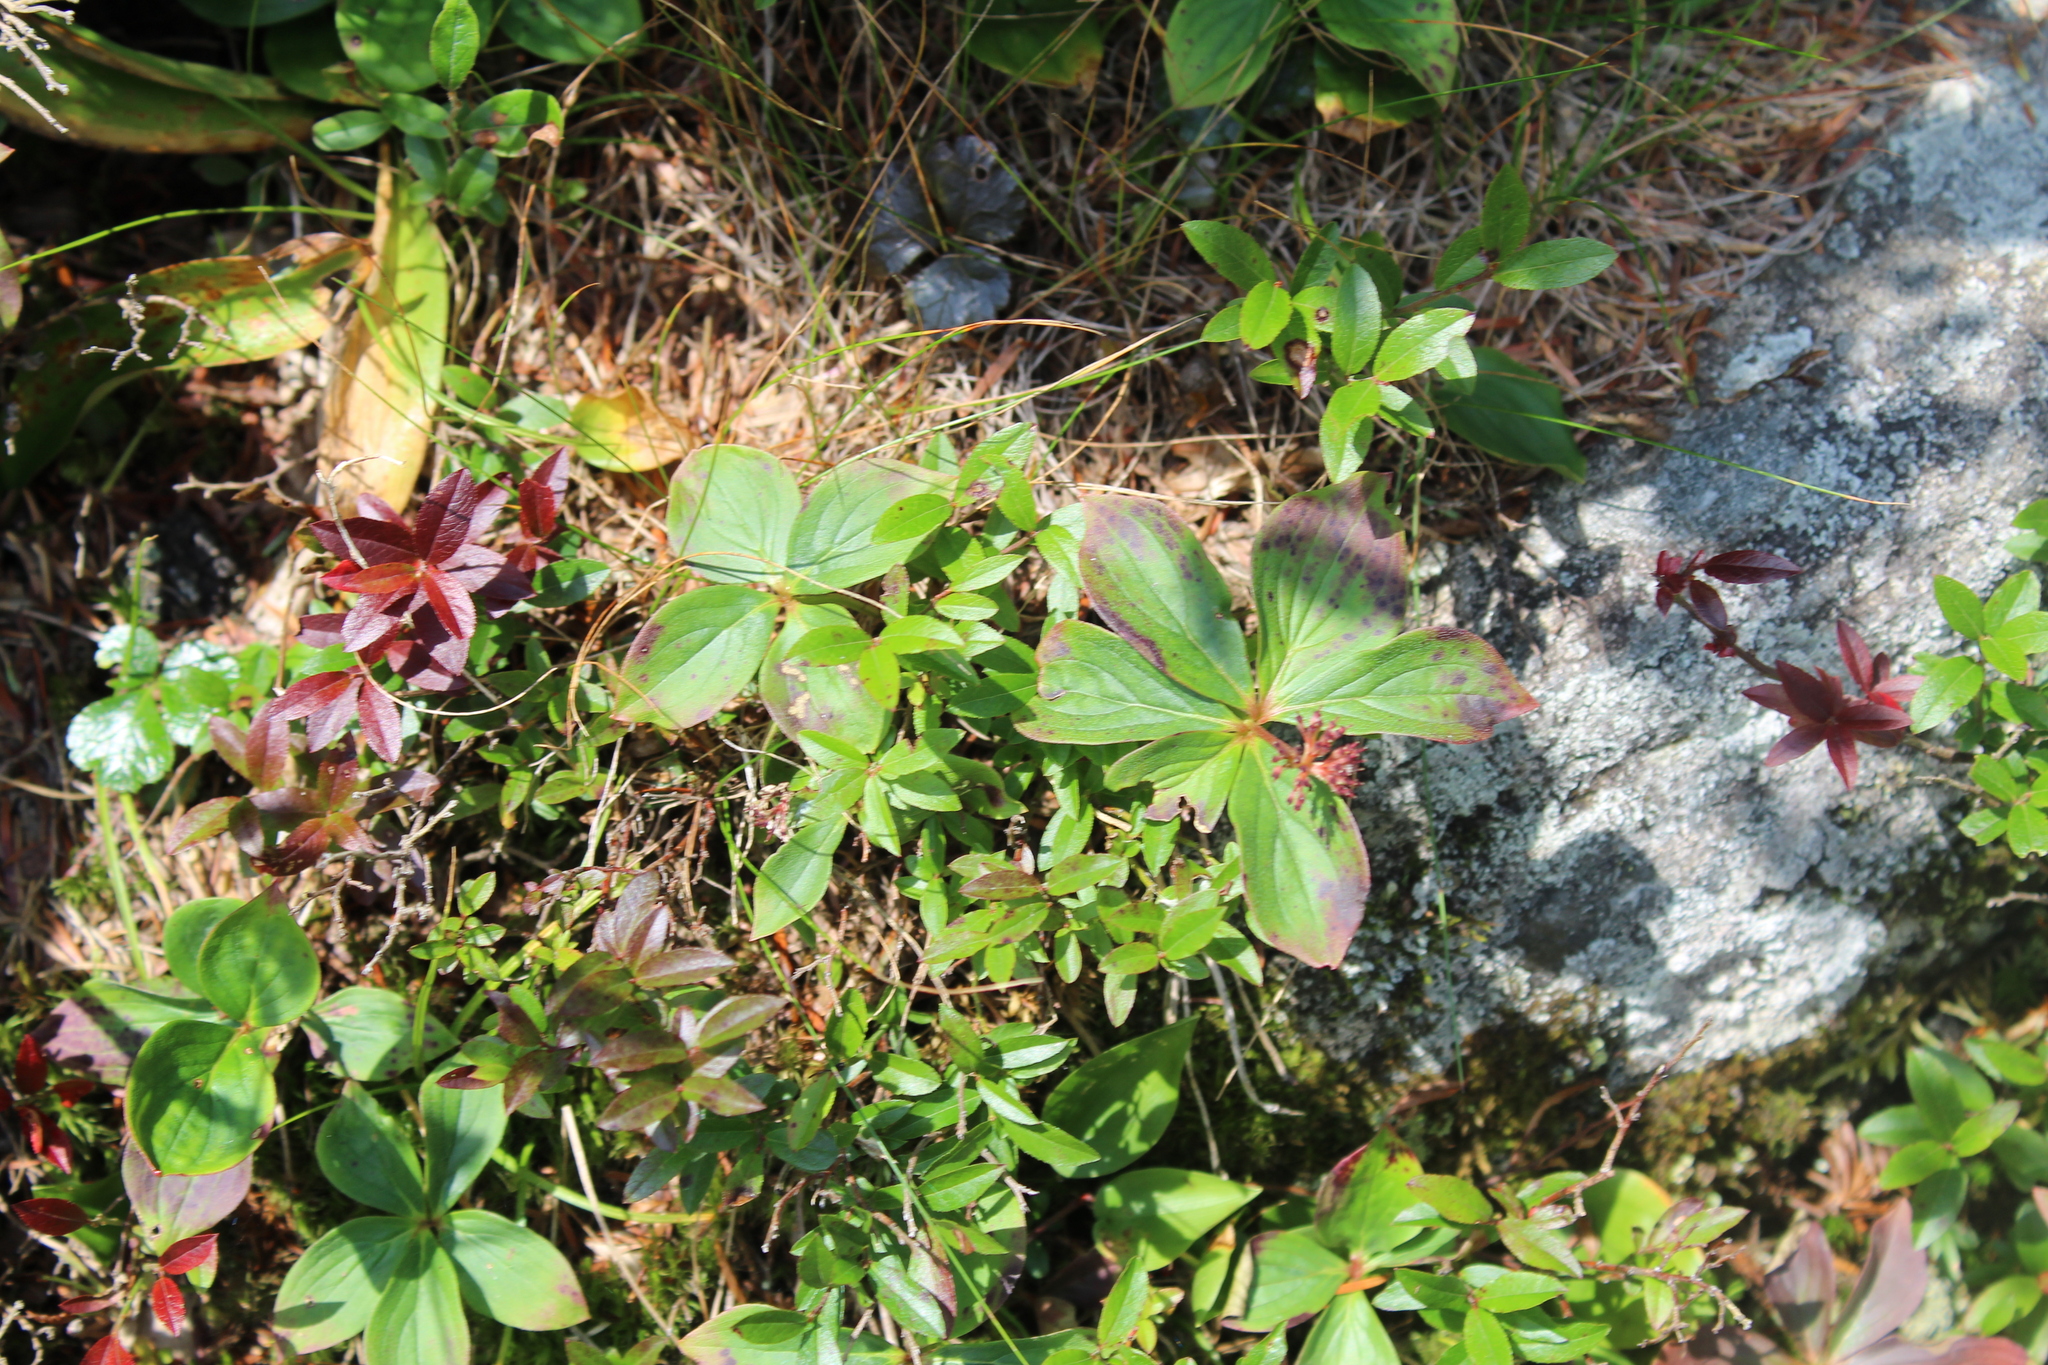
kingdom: Plantae
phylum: Tracheophyta
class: Magnoliopsida
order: Cornales
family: Cornaceae
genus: Cornus
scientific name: Cornus canadensis
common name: Creeping dogwood
